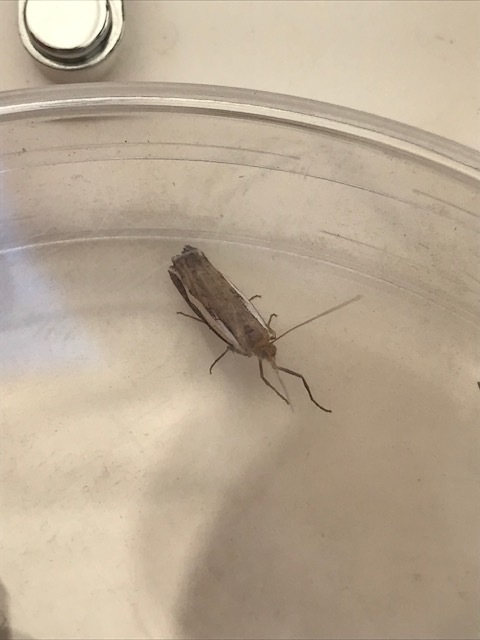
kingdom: Animalia
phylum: Arthropoda
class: Insecta
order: Lepidoptera
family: Crambidae
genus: Orocrambus
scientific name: Orocrambus flexuosellus
